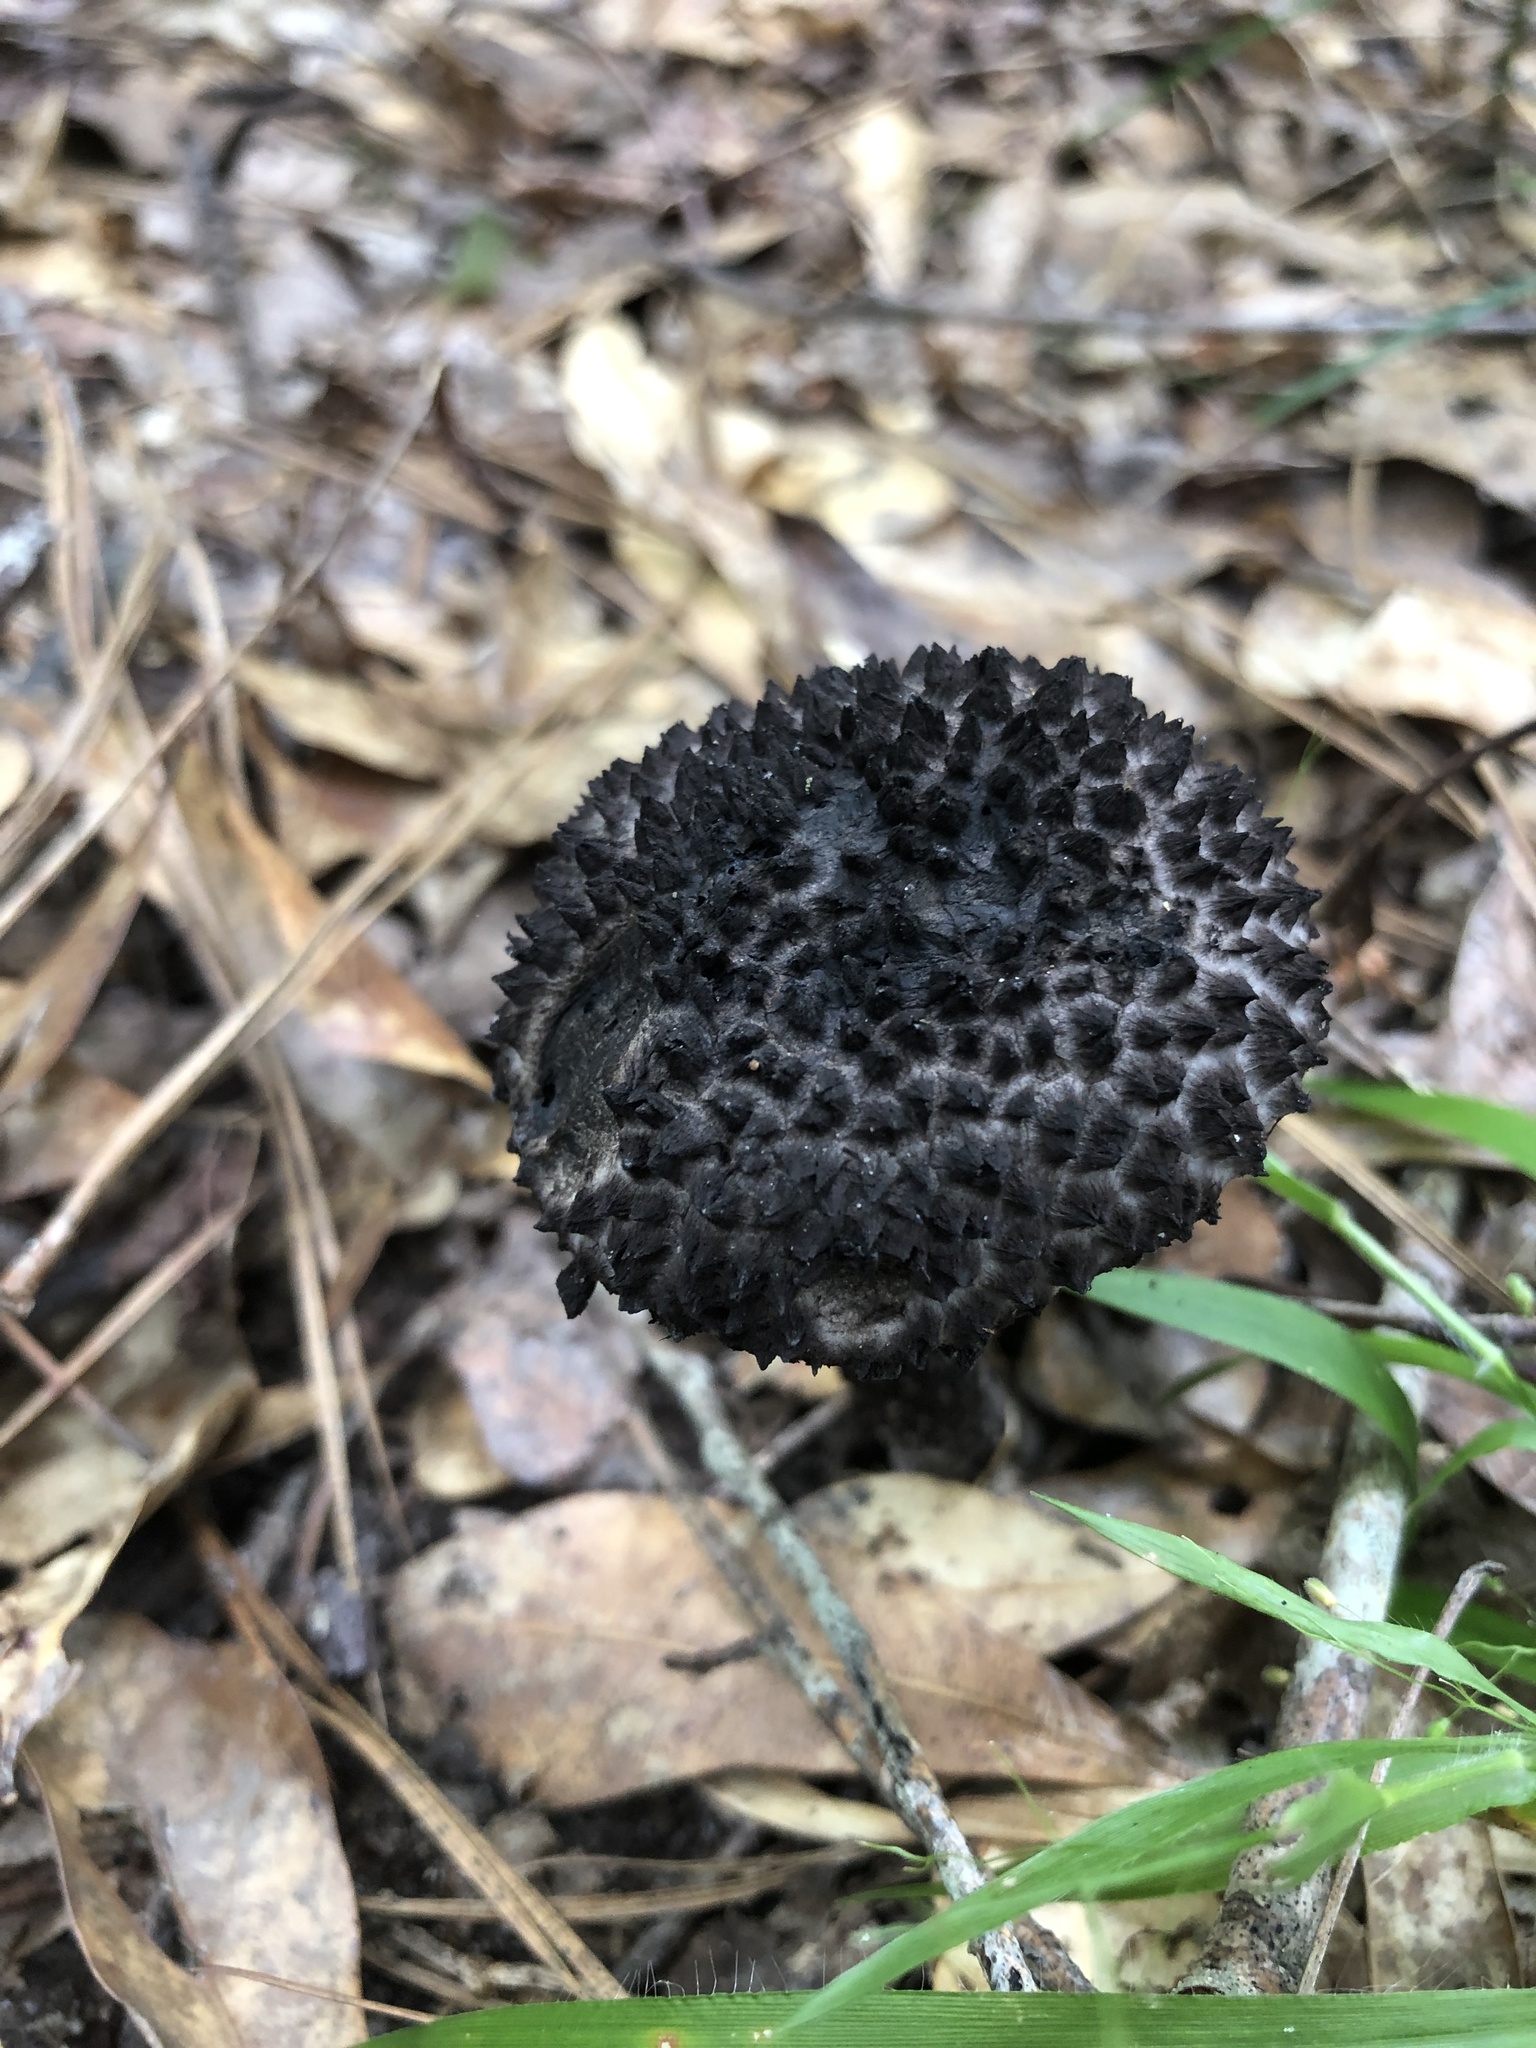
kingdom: Fungi
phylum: Basidiomycota
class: Agaricomycetes
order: Boletales
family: Boletaceae
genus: Strobilomyces
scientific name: Strobilomyces strobilaceus
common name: Old man of the woods
